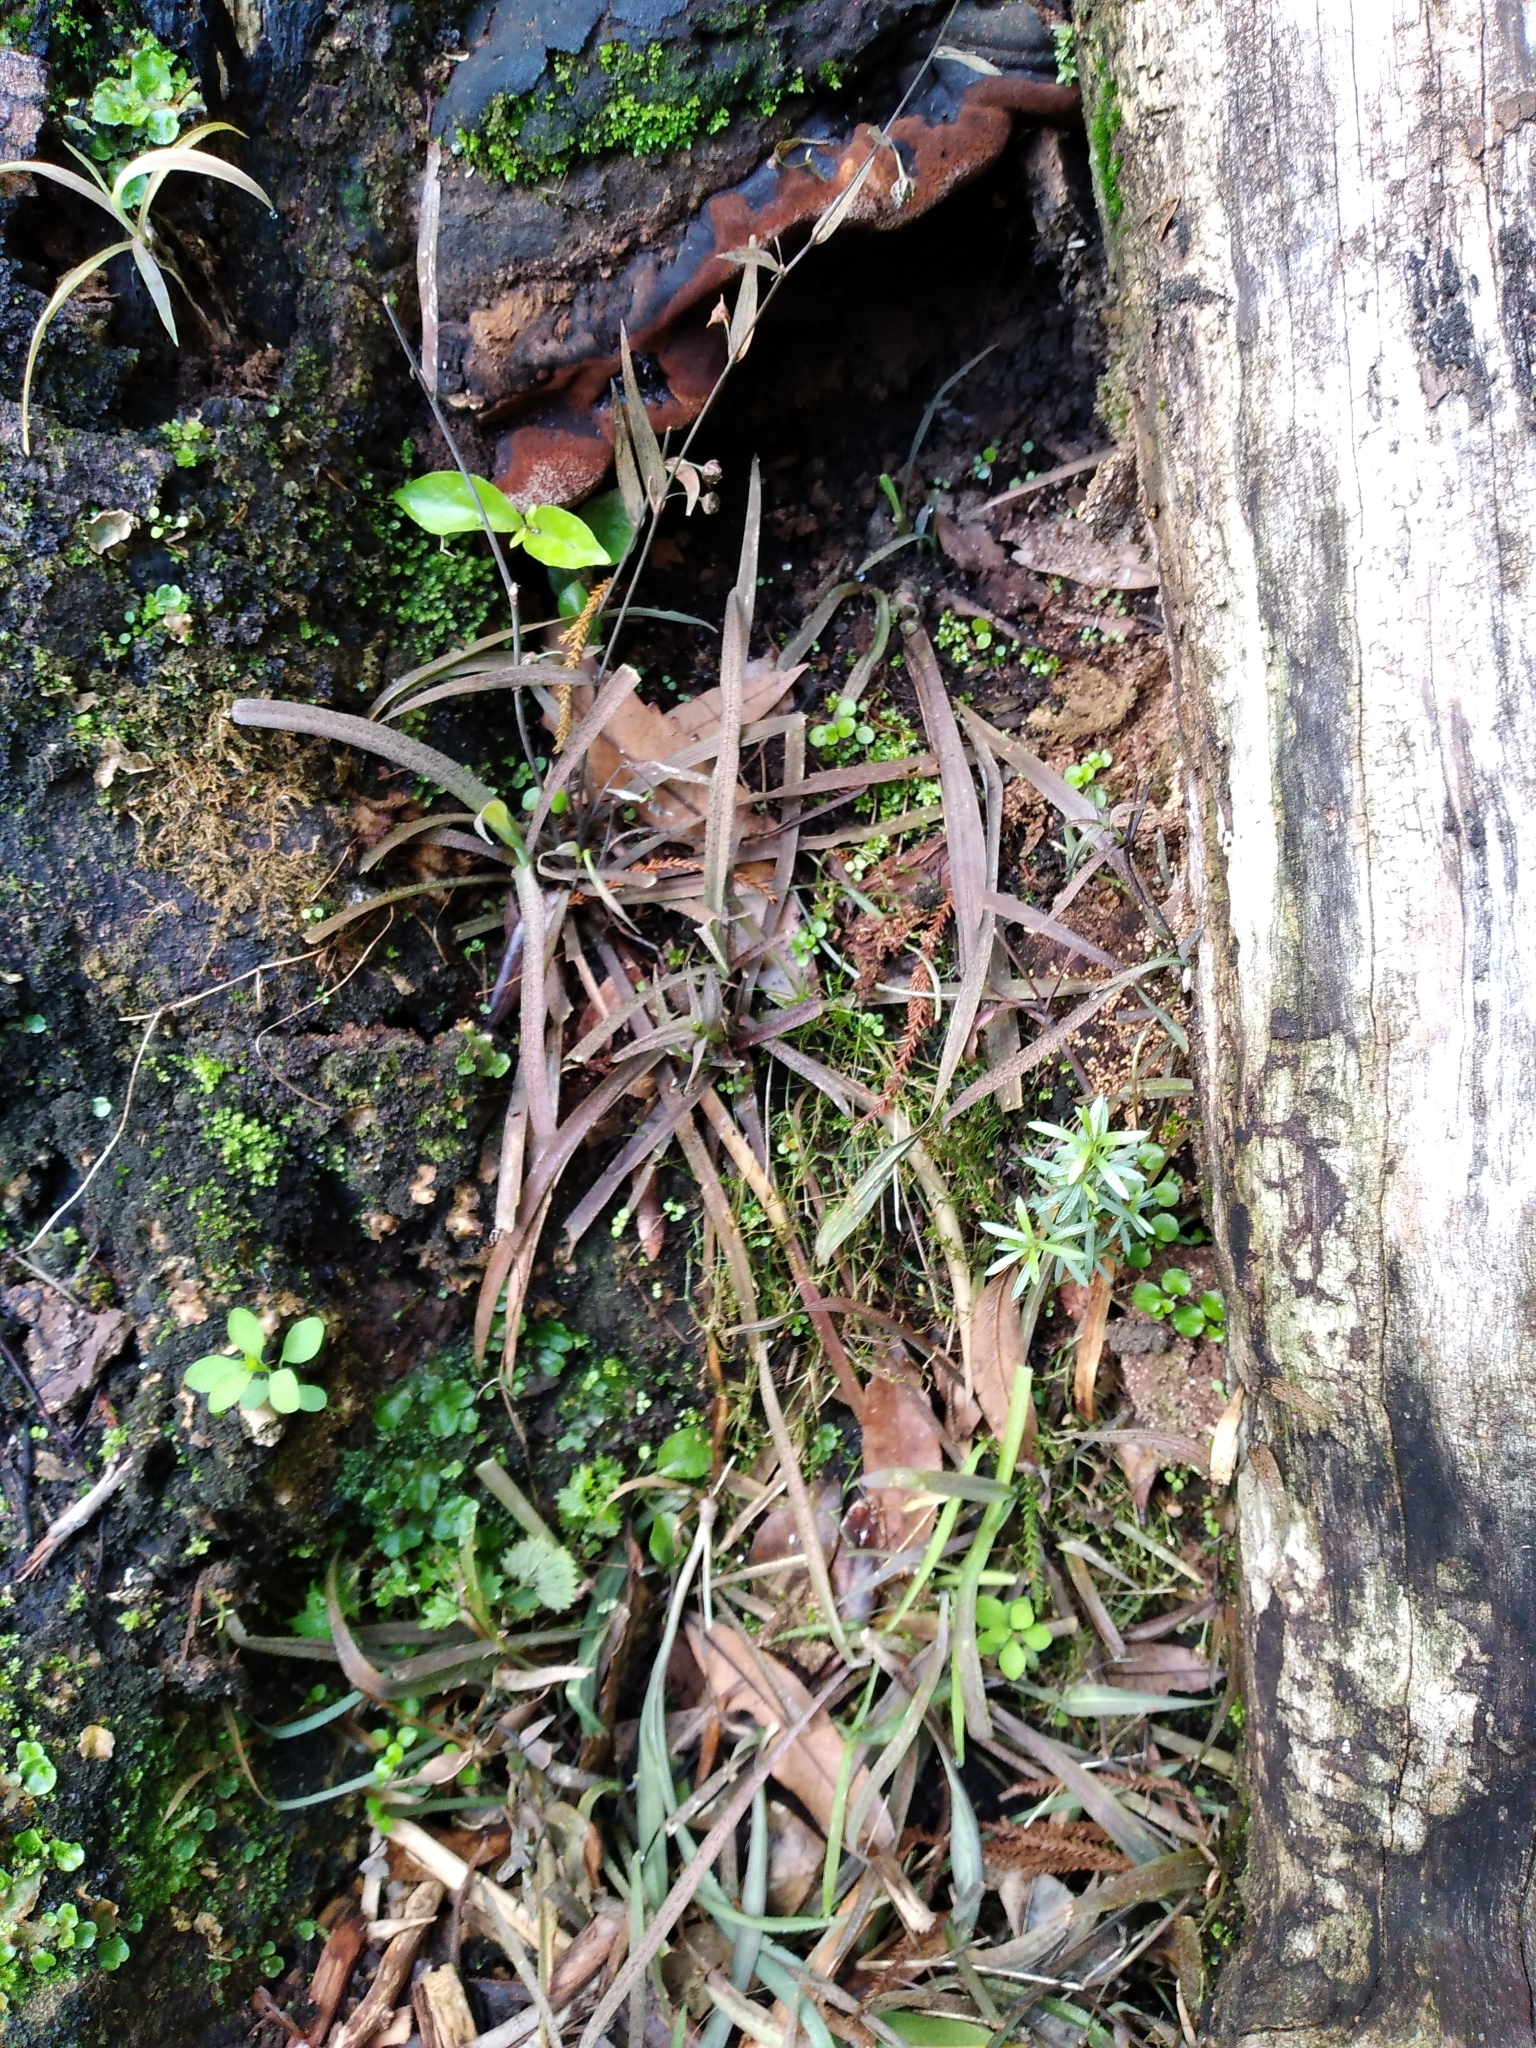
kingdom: Plantae
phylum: Tracheophyta
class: Liliopsida
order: Asparagales
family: Asparagaceae
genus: Arthropodium
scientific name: Arthropodium candidum
